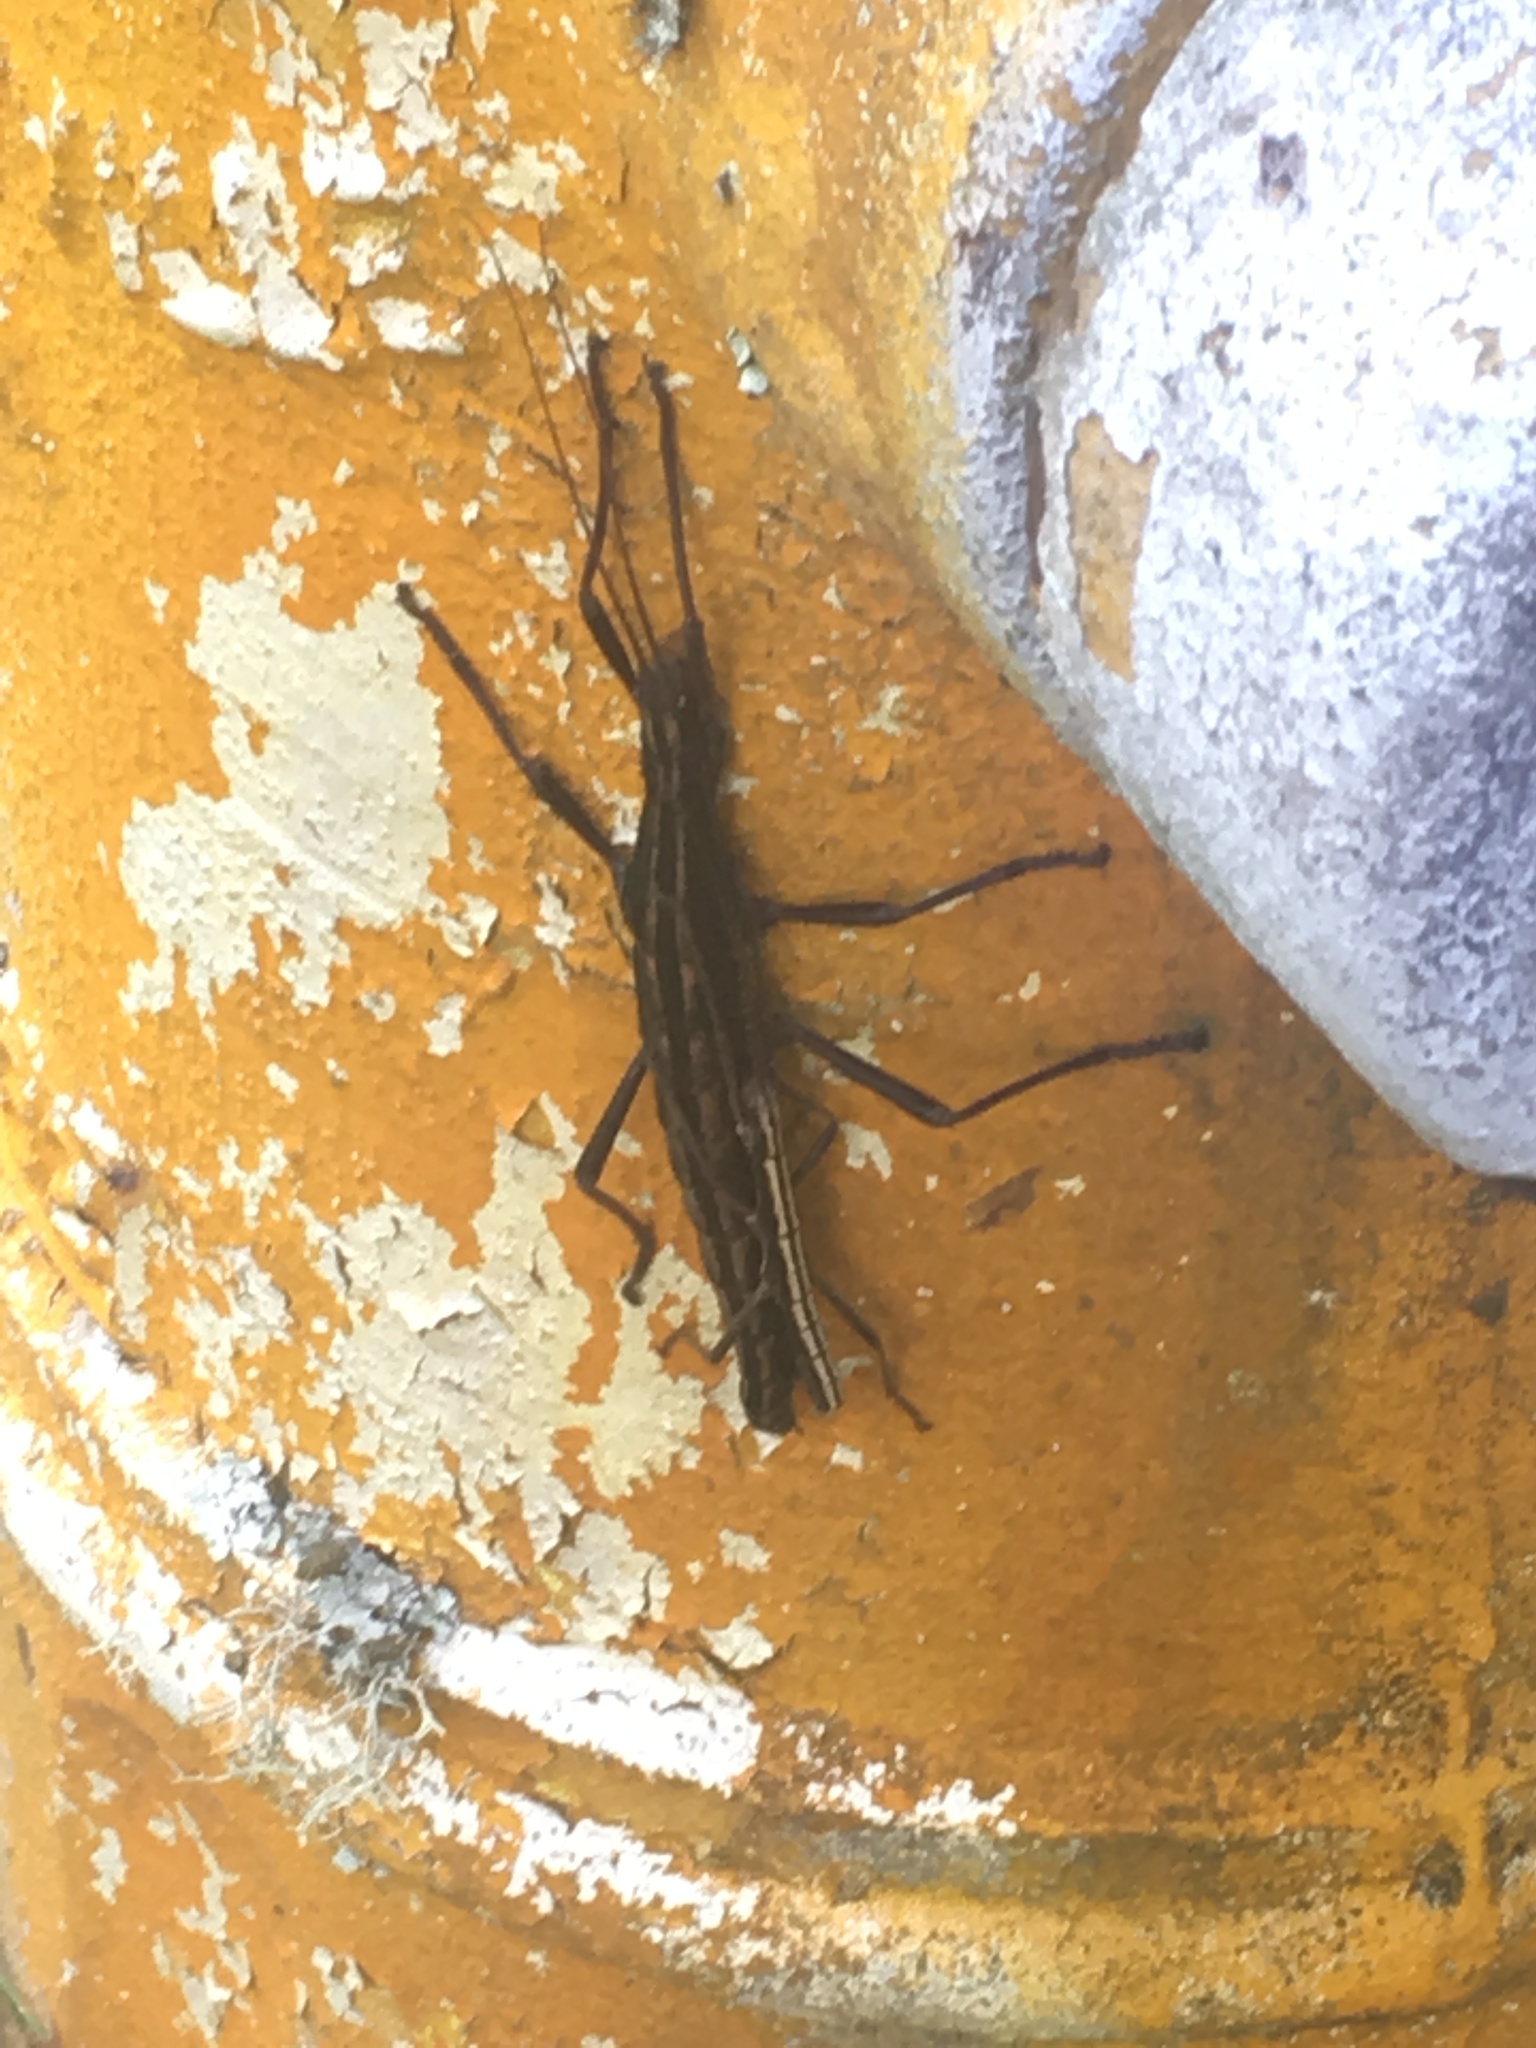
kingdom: Animalia
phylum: Arthropoda
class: Insecta
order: Phasmida
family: Pseudophasmatidae
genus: Anisomorpha
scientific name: Anisomorpha buprestoides
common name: Florida stick insect
